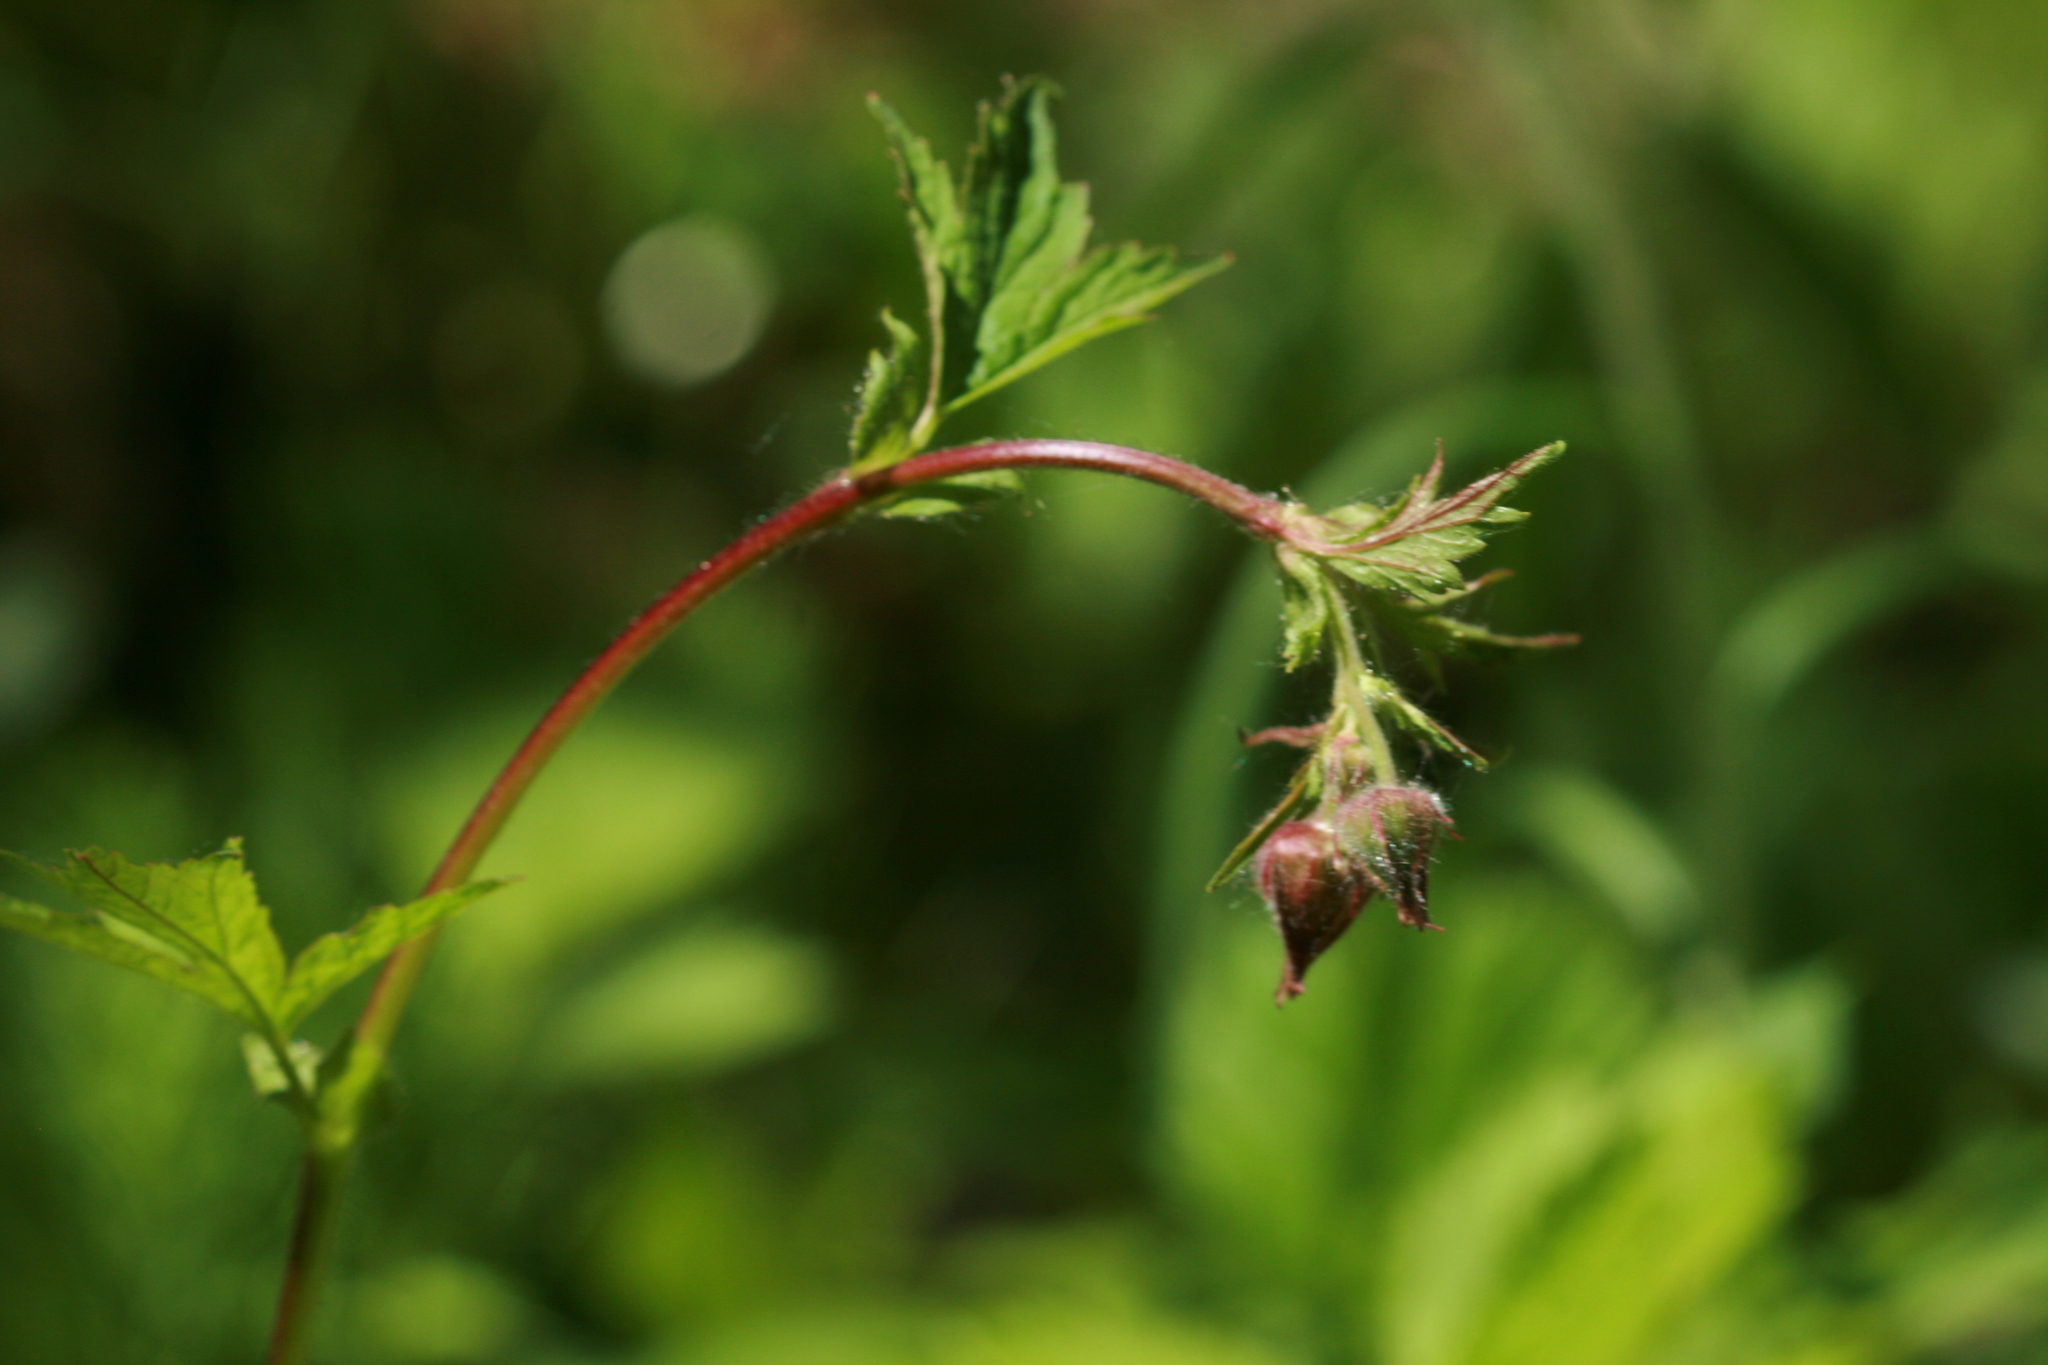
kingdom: Plantae
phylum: Tracheophyta
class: Magnoliopsida
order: Rosales
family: Rosaceae
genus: Geum
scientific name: Geum rivale
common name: Water avens
